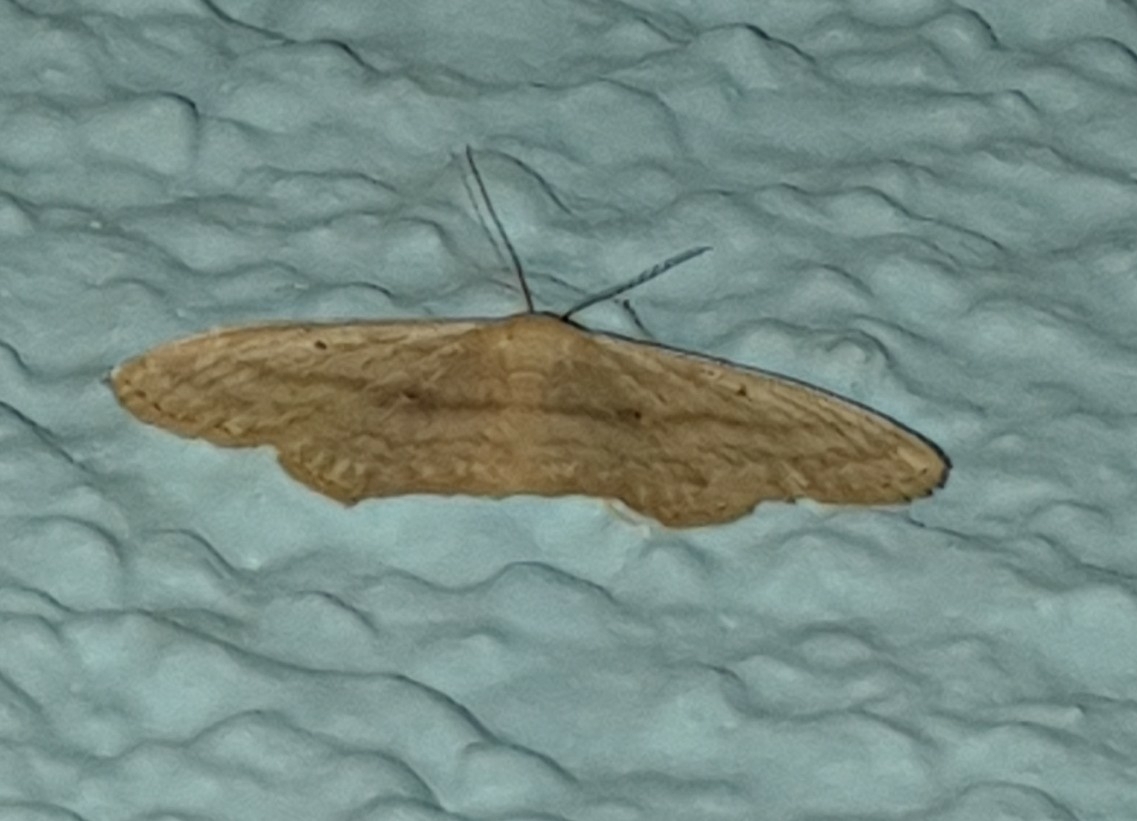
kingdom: Animalia
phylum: Arthropoda
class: Insecta
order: Lepidoptera
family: Geometridae
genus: Scopula
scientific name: Scopula nigropunctata
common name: Sub-angled wave
